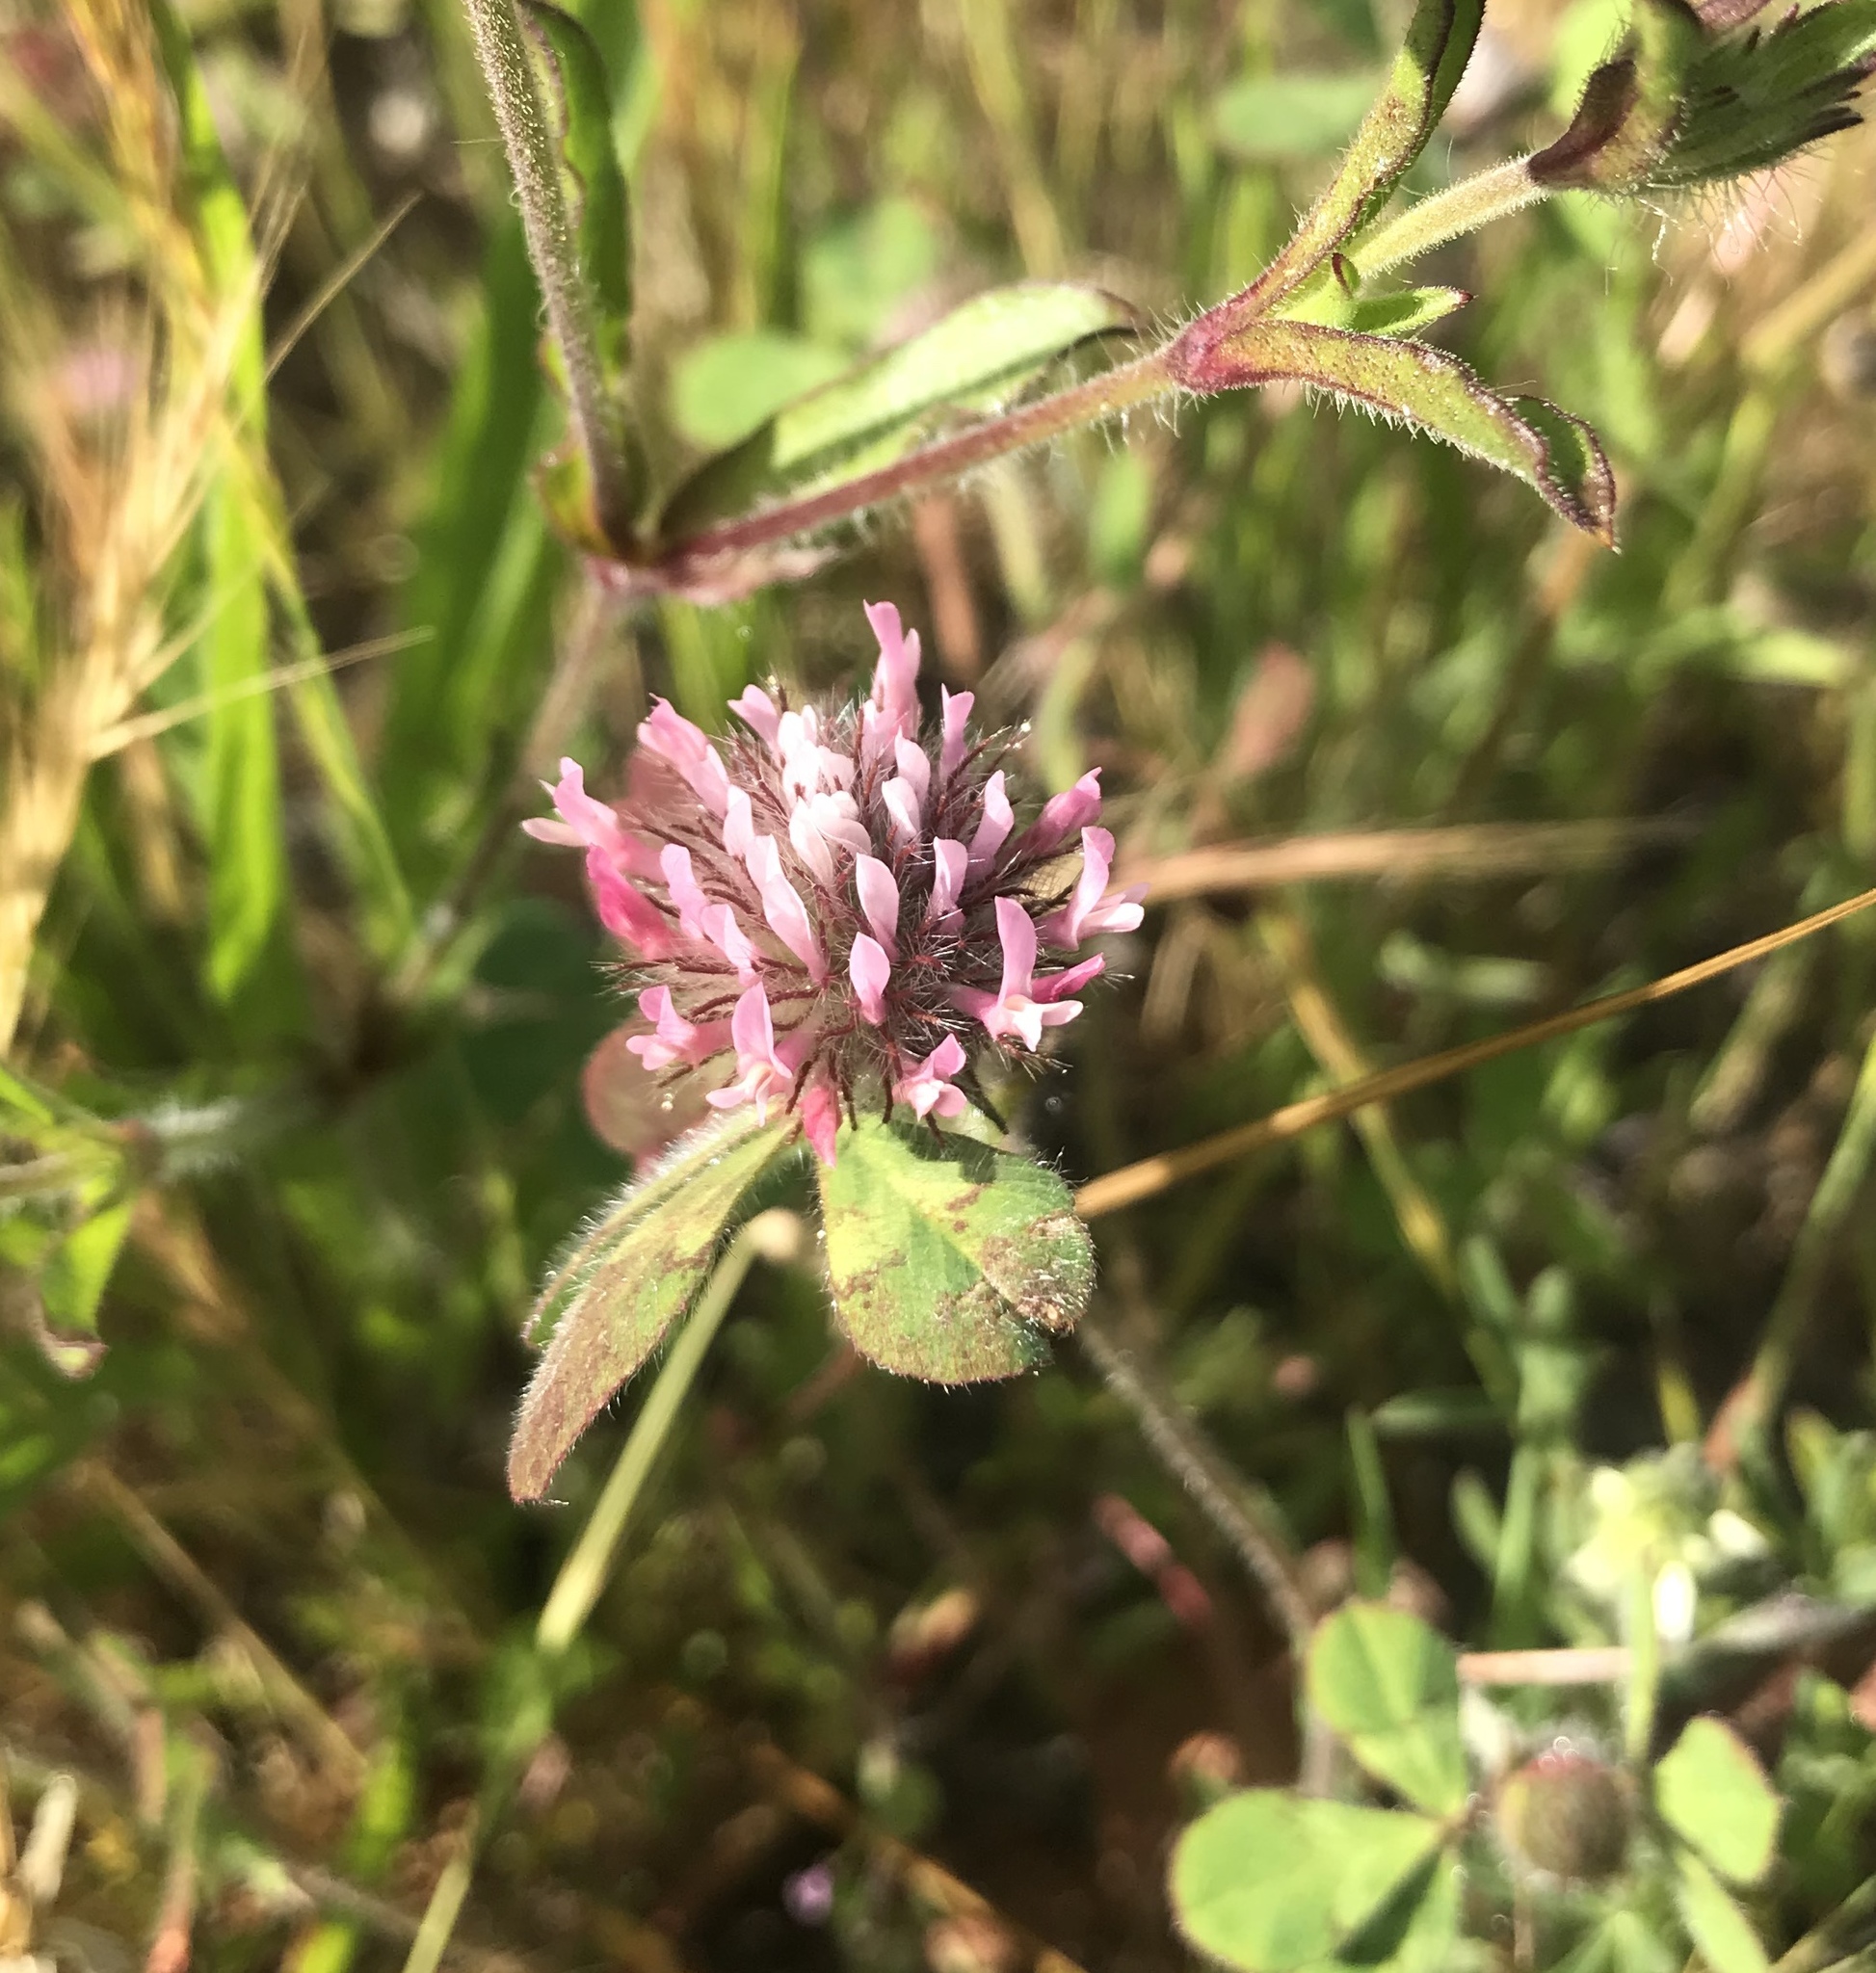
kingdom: Plantae
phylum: Tracheophyta
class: Magnoliopsida
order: Fabales
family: Fabaceae
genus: Trifolium
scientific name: Trifolium hirtum
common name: Rose clover
